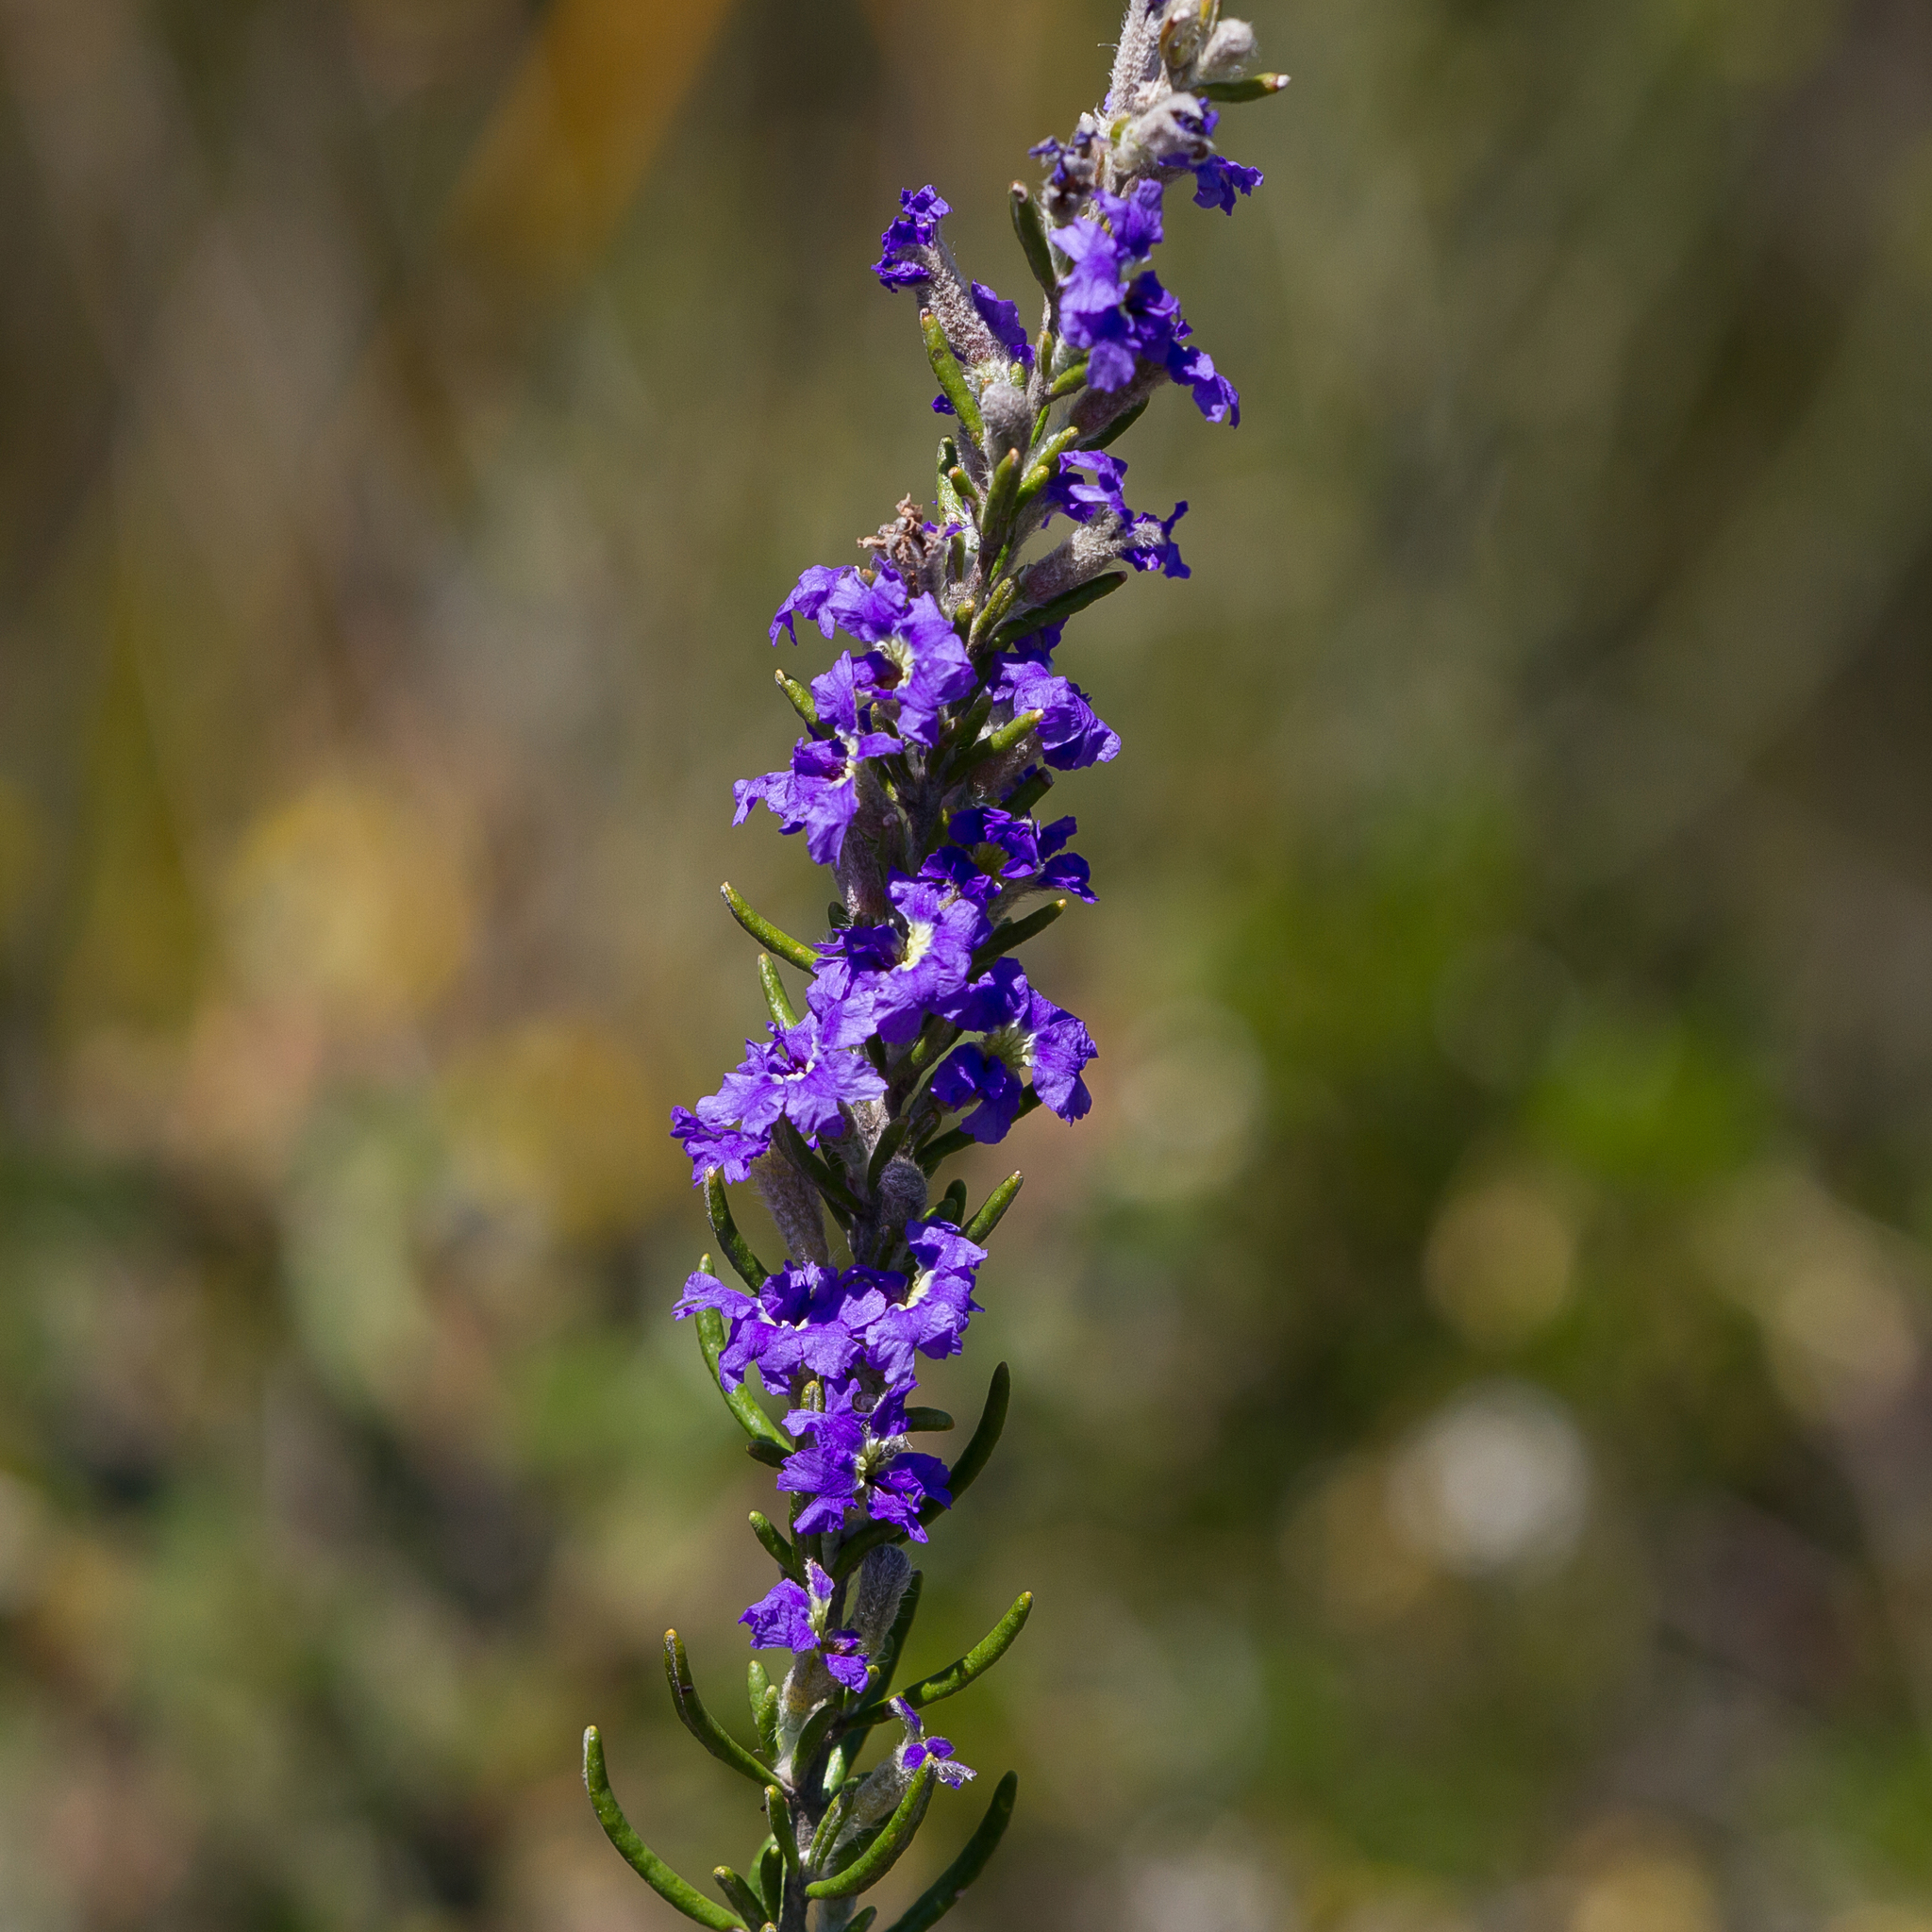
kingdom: Plantae
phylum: Tracheophyta
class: Magnoliopsida
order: Asterales
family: Goodeniaceae
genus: Dampiera
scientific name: Dampiera rosmarinifolia
